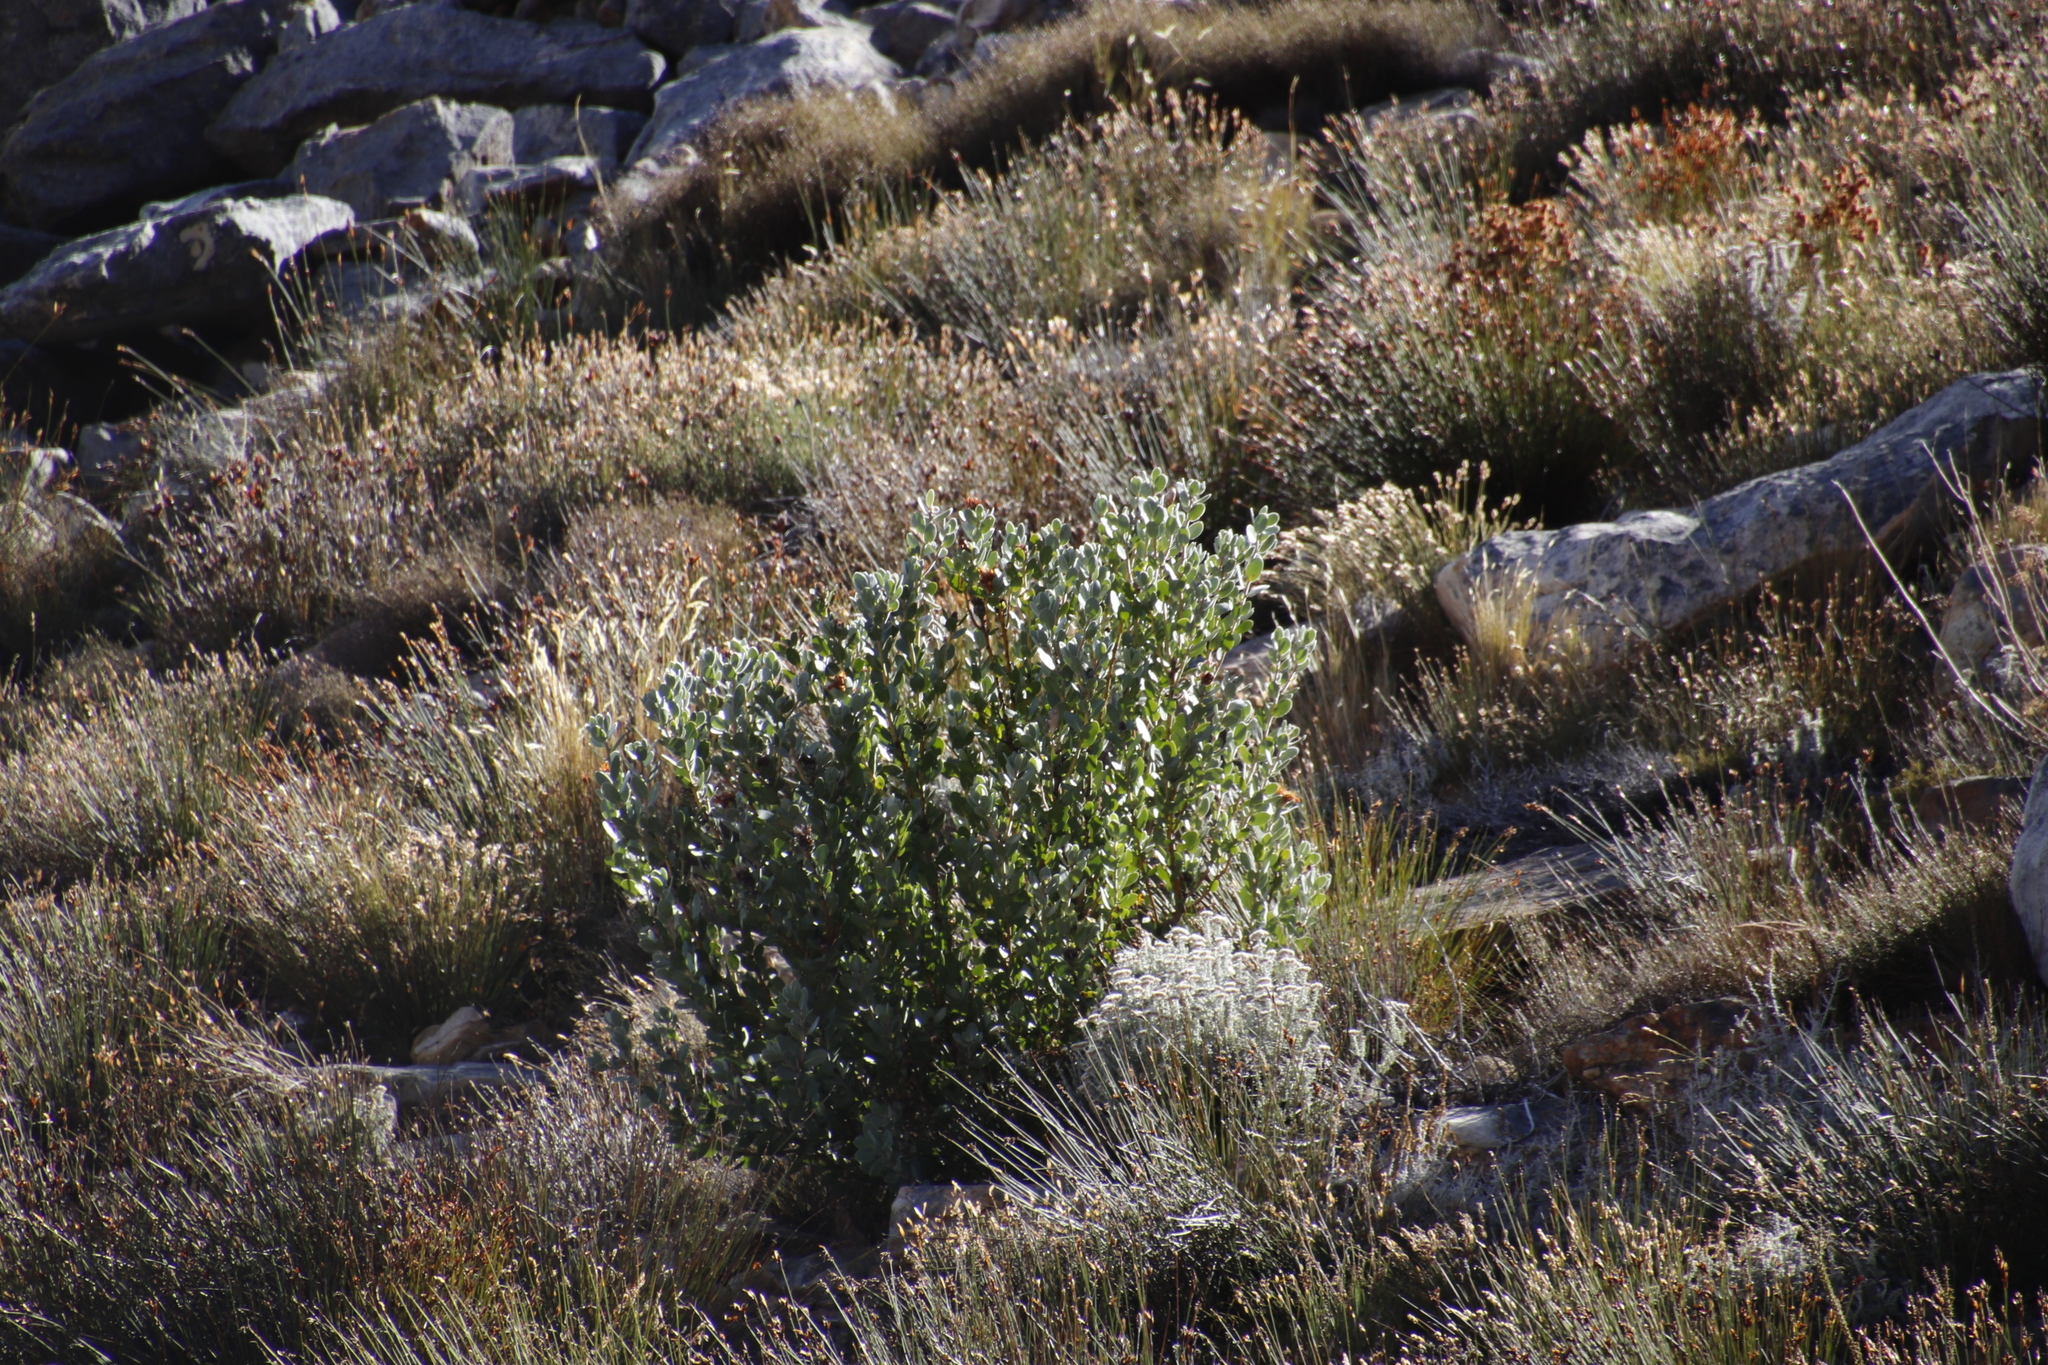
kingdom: Plantae
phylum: Tracheophyta
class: Magnoliopsida
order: Proteales
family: Proteaceae
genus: Protea
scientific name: Protea punctata
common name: Water sugarbush
